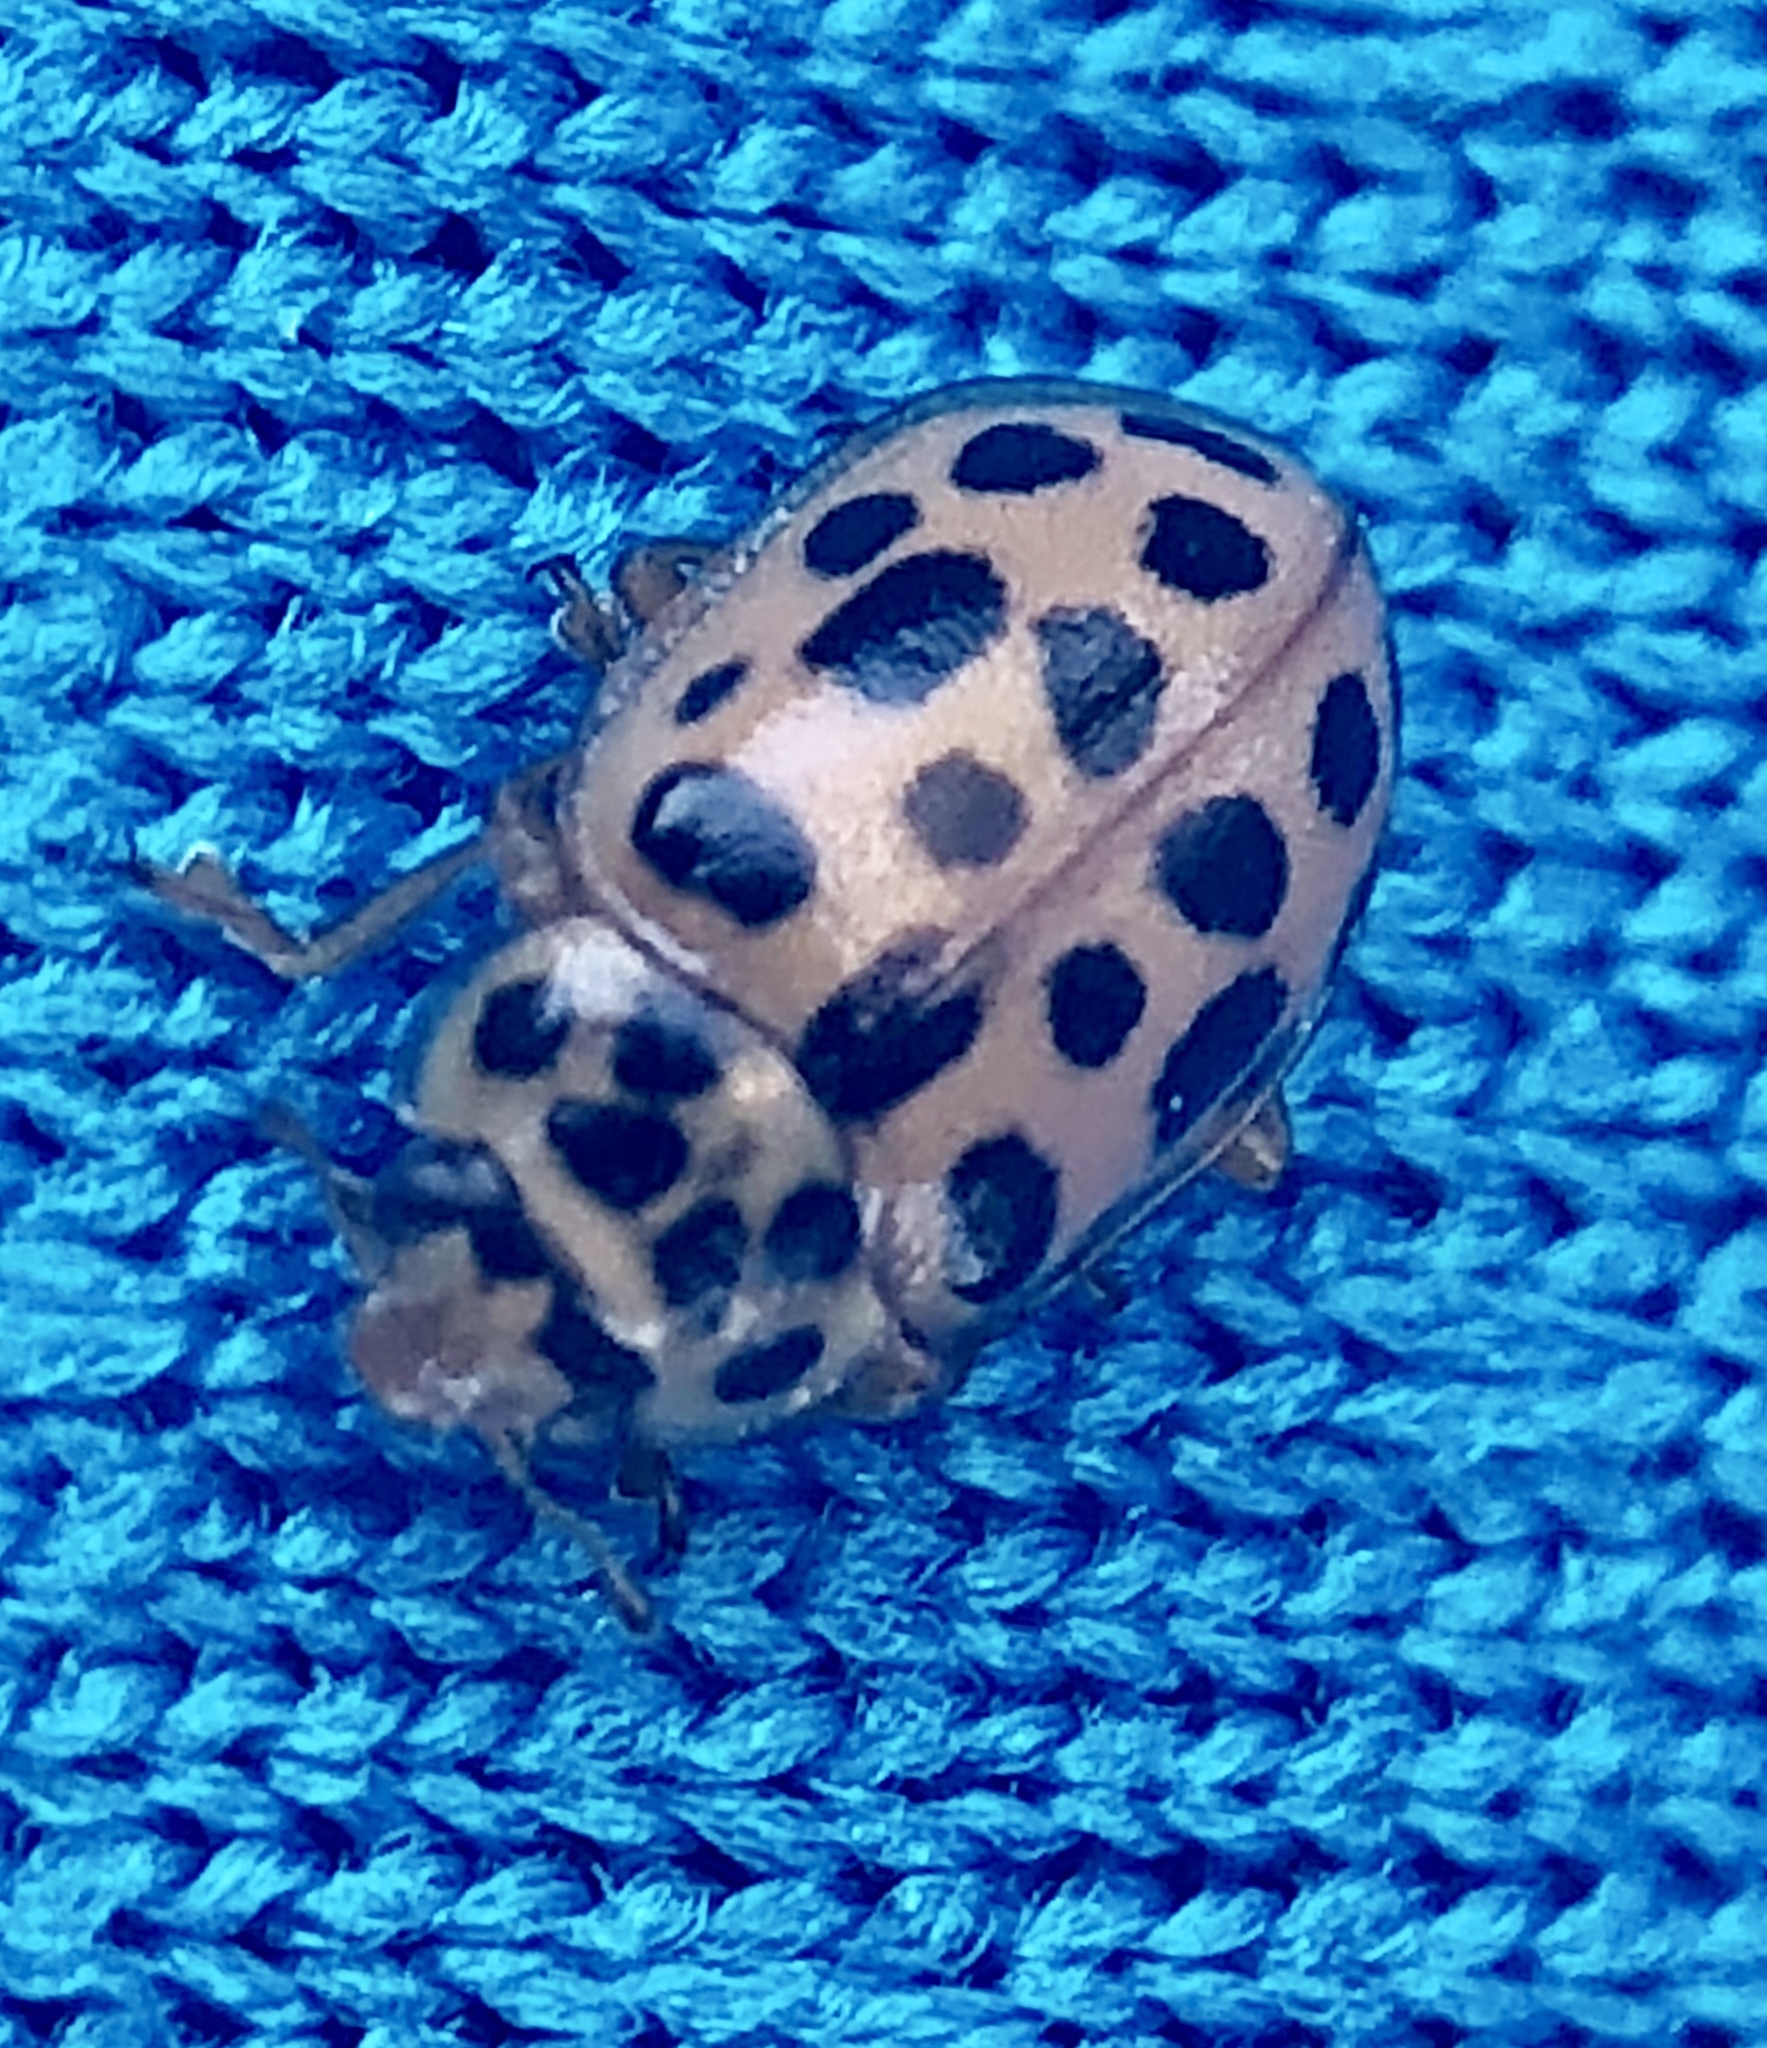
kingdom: Animalia
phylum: Arthropoda
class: Insecta
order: Coleoptera
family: Coccinellidae
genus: Anisosticta
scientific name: Anisosticta novemdecimpunctata
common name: Water ladybird
